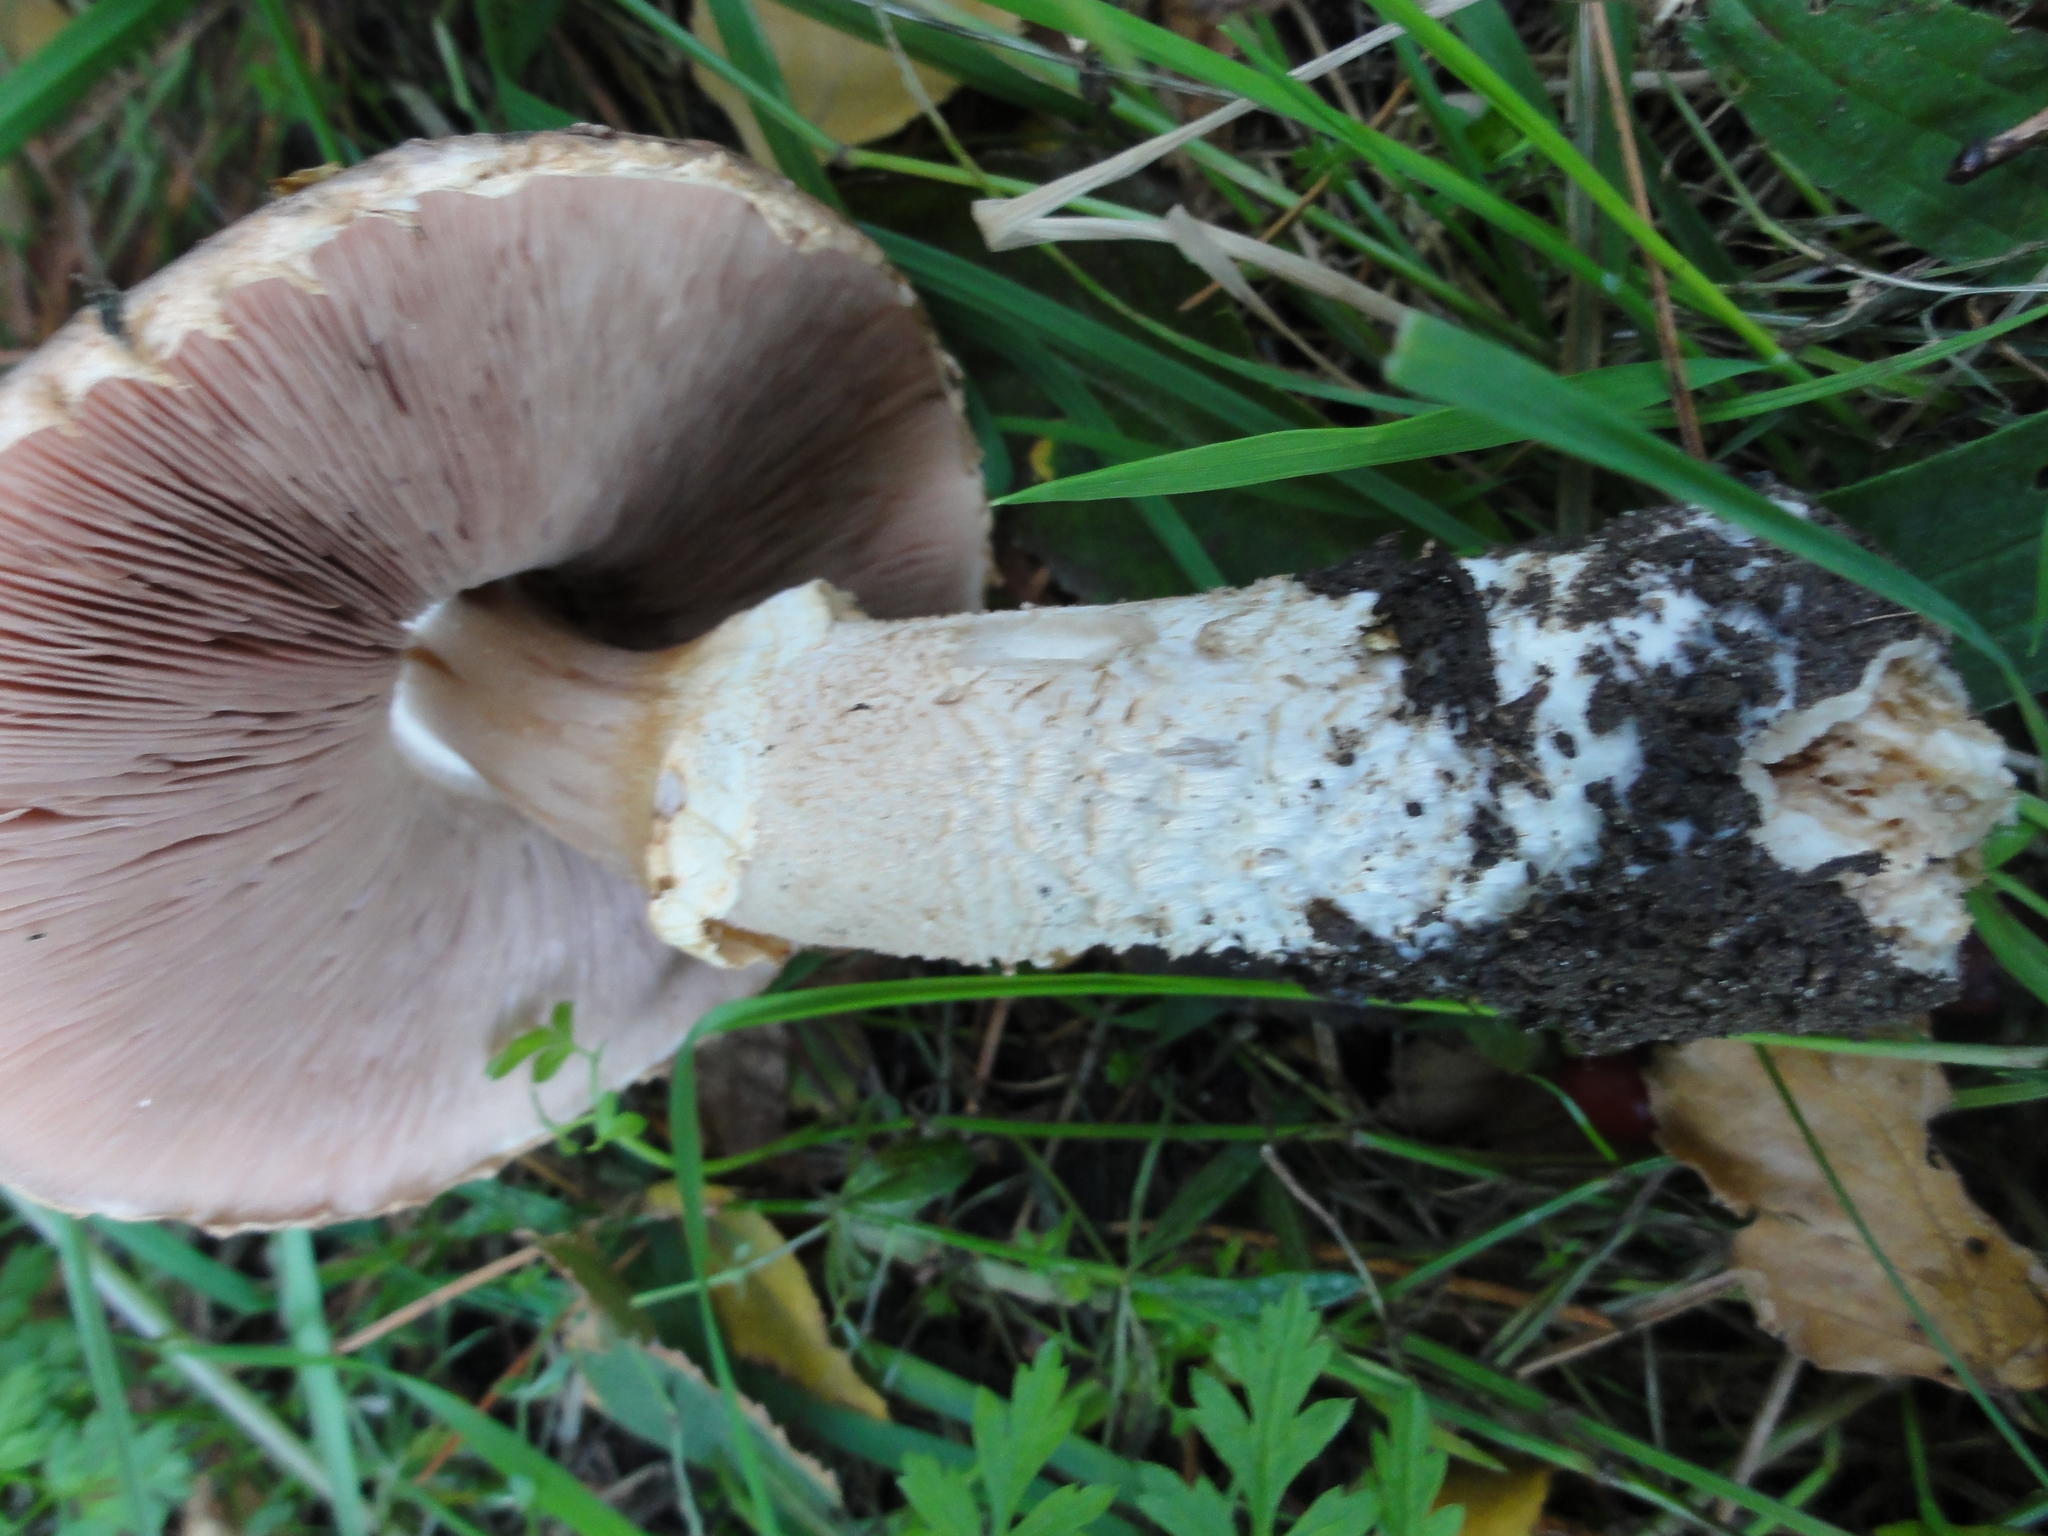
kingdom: Fungi
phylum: Basidiomycota
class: Agaricomycetes
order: Agaricales
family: Agaricaceae
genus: Agaricus
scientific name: Agaricus augustus
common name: Prince
